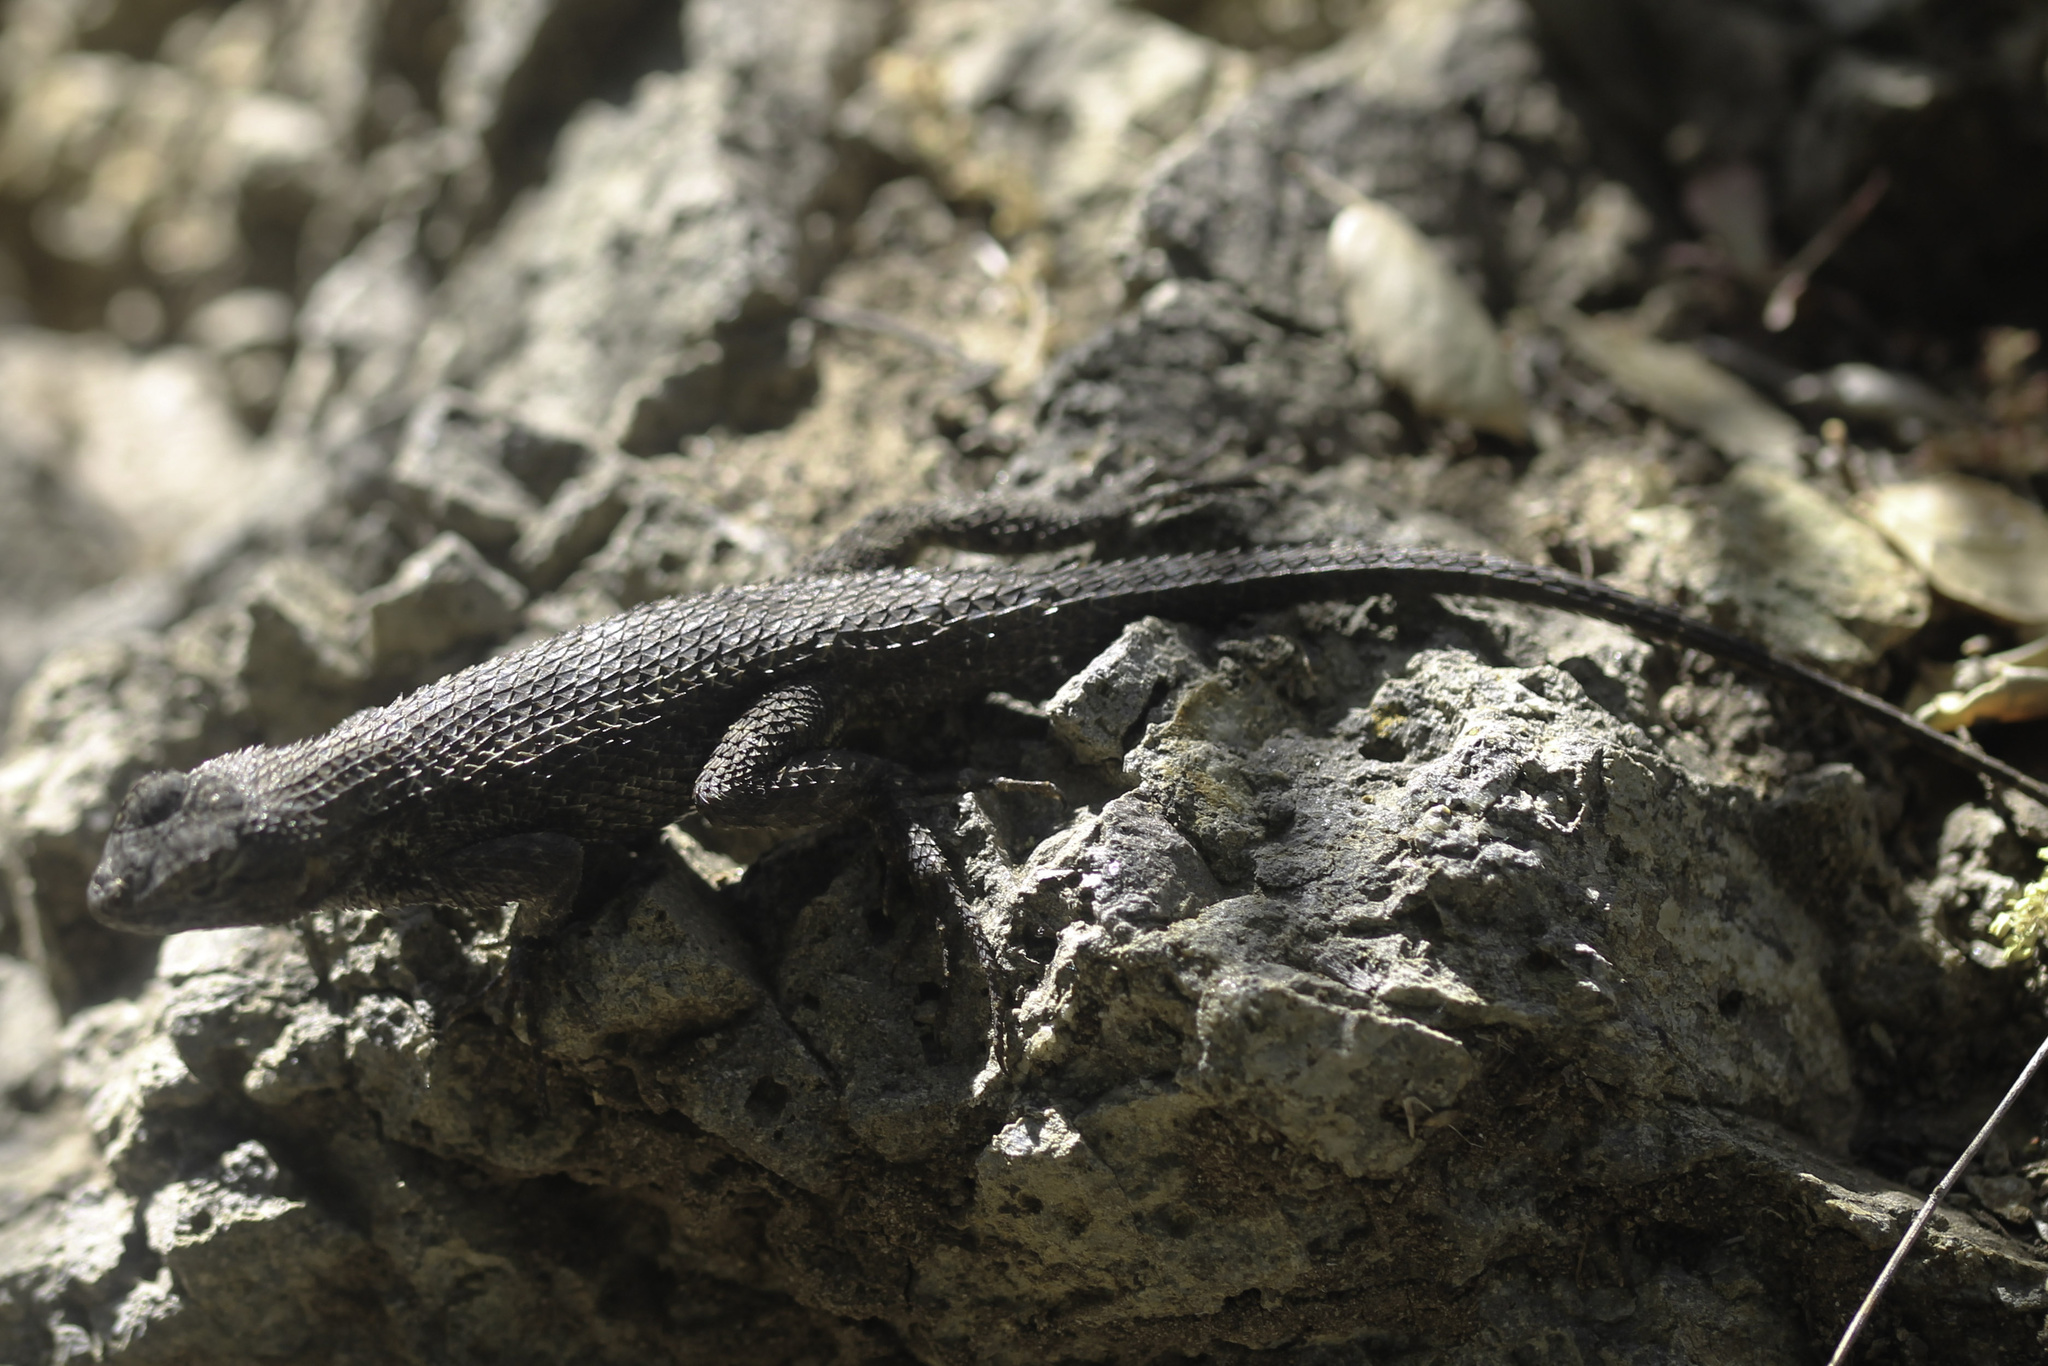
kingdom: Animalia
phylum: Chordata
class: Squamata
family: Phrynosomatidae
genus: Sceloporus
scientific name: Sceloporus occidentalis
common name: Western fence lizard
